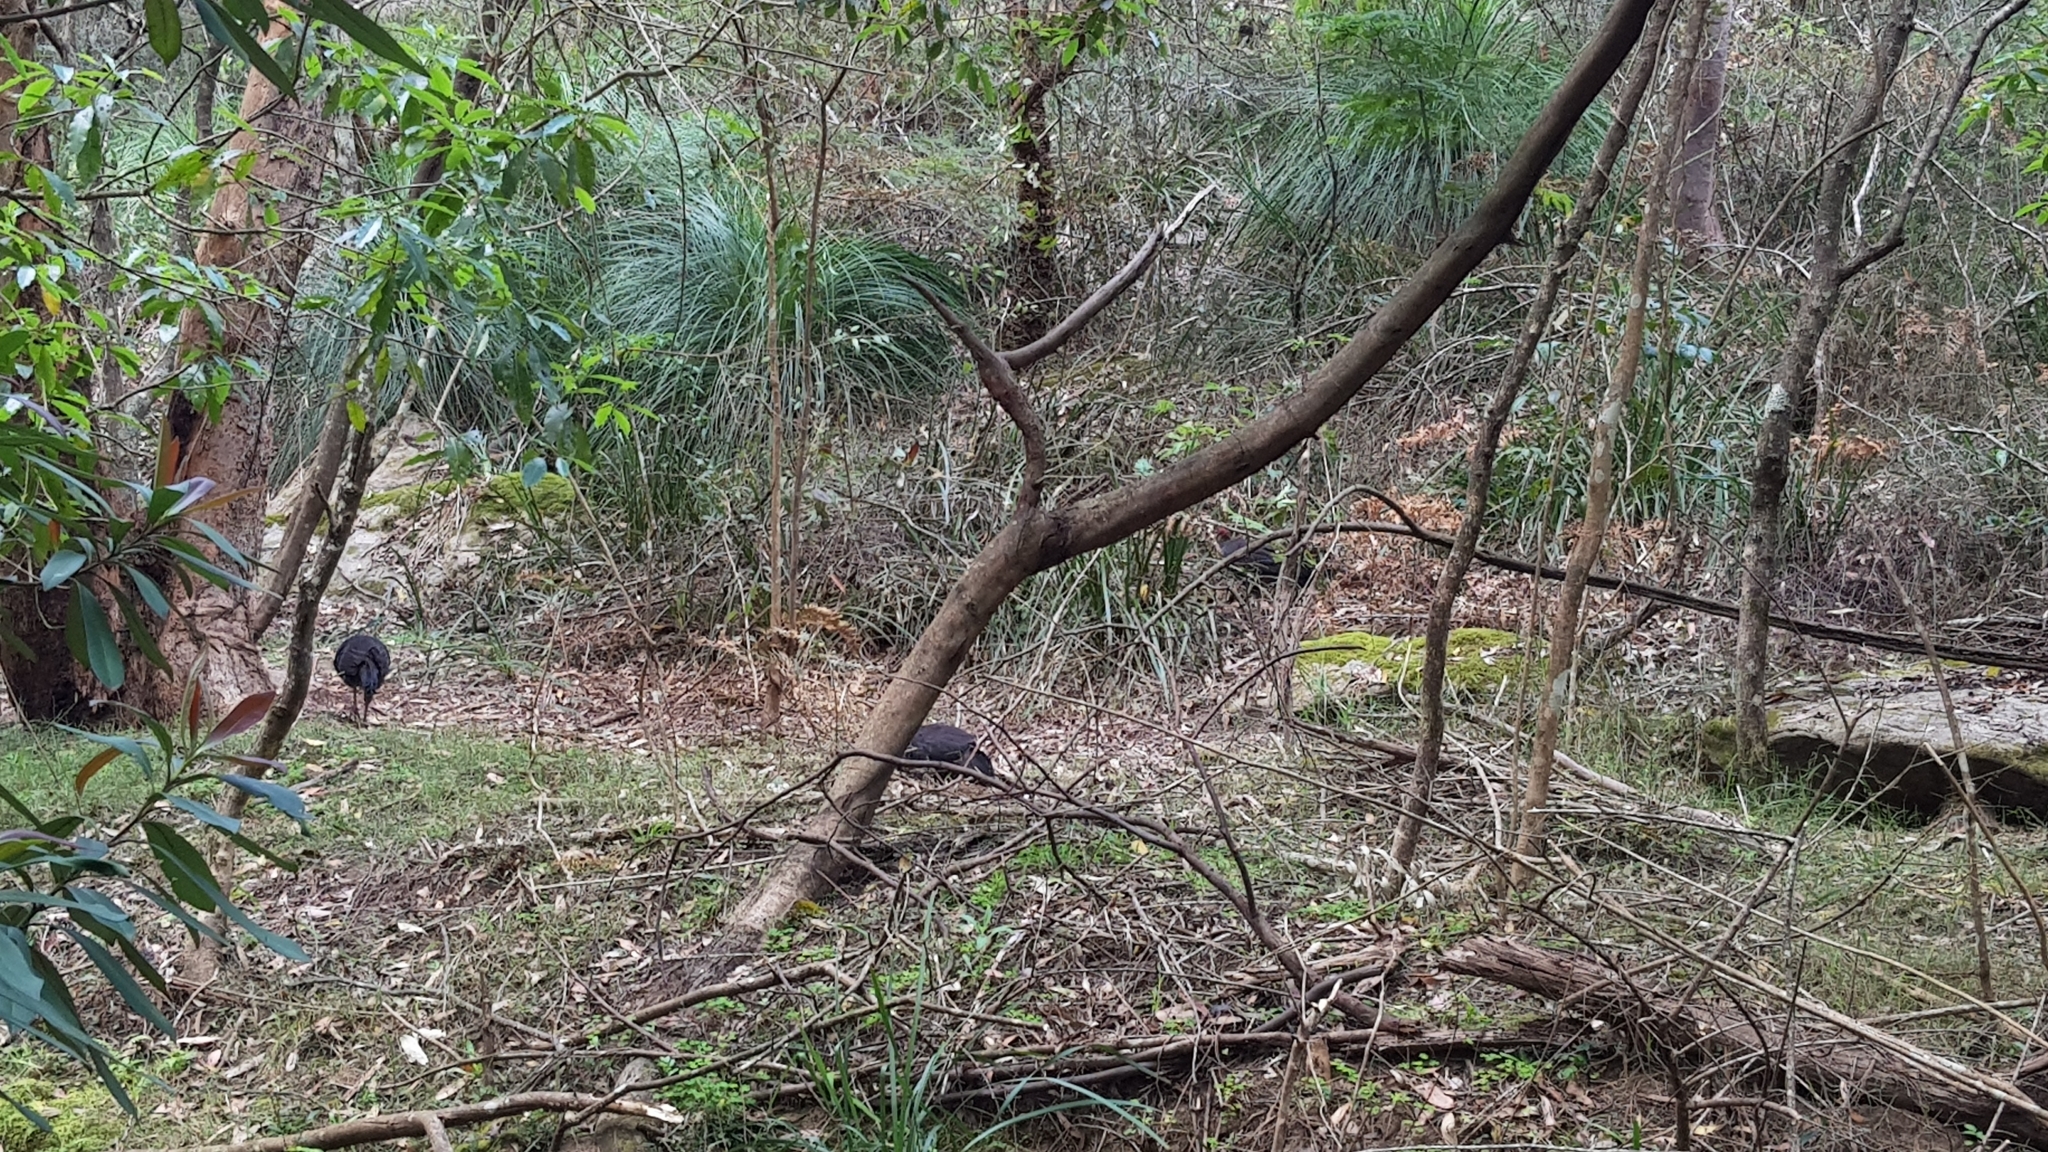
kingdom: Animalia
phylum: Chordata
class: Aves
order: Galliformes
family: Megapodiidae
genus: Alectura
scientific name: Alectura lathami
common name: Australian brushturkey
